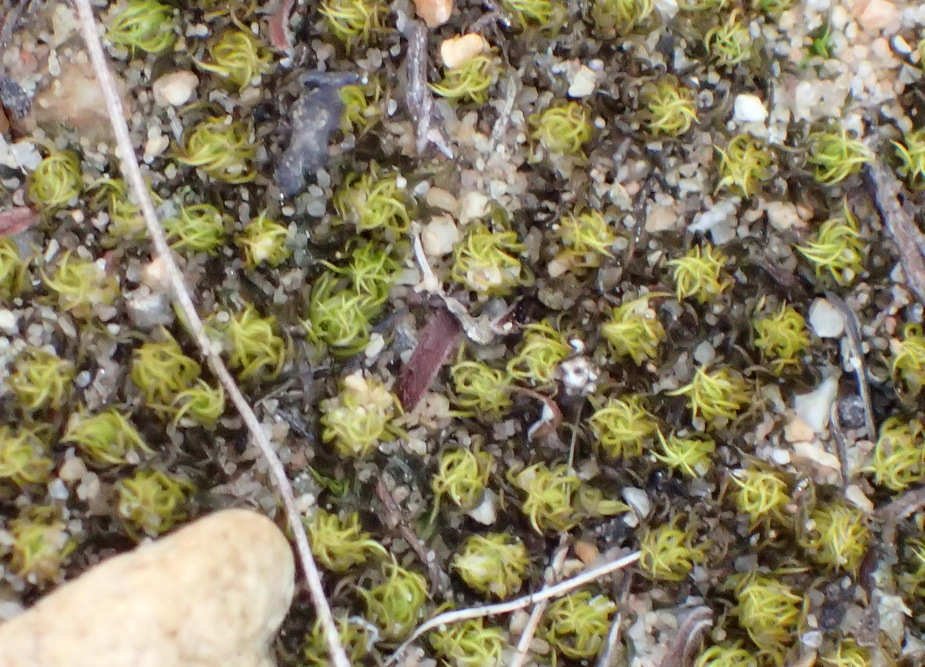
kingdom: Plantae
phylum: Bryophyta
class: Bryopsida
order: Pottiales
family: Pottiaceae
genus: Trichostomum
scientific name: Trichostomum brachydontium
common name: Variable crisp-moss
